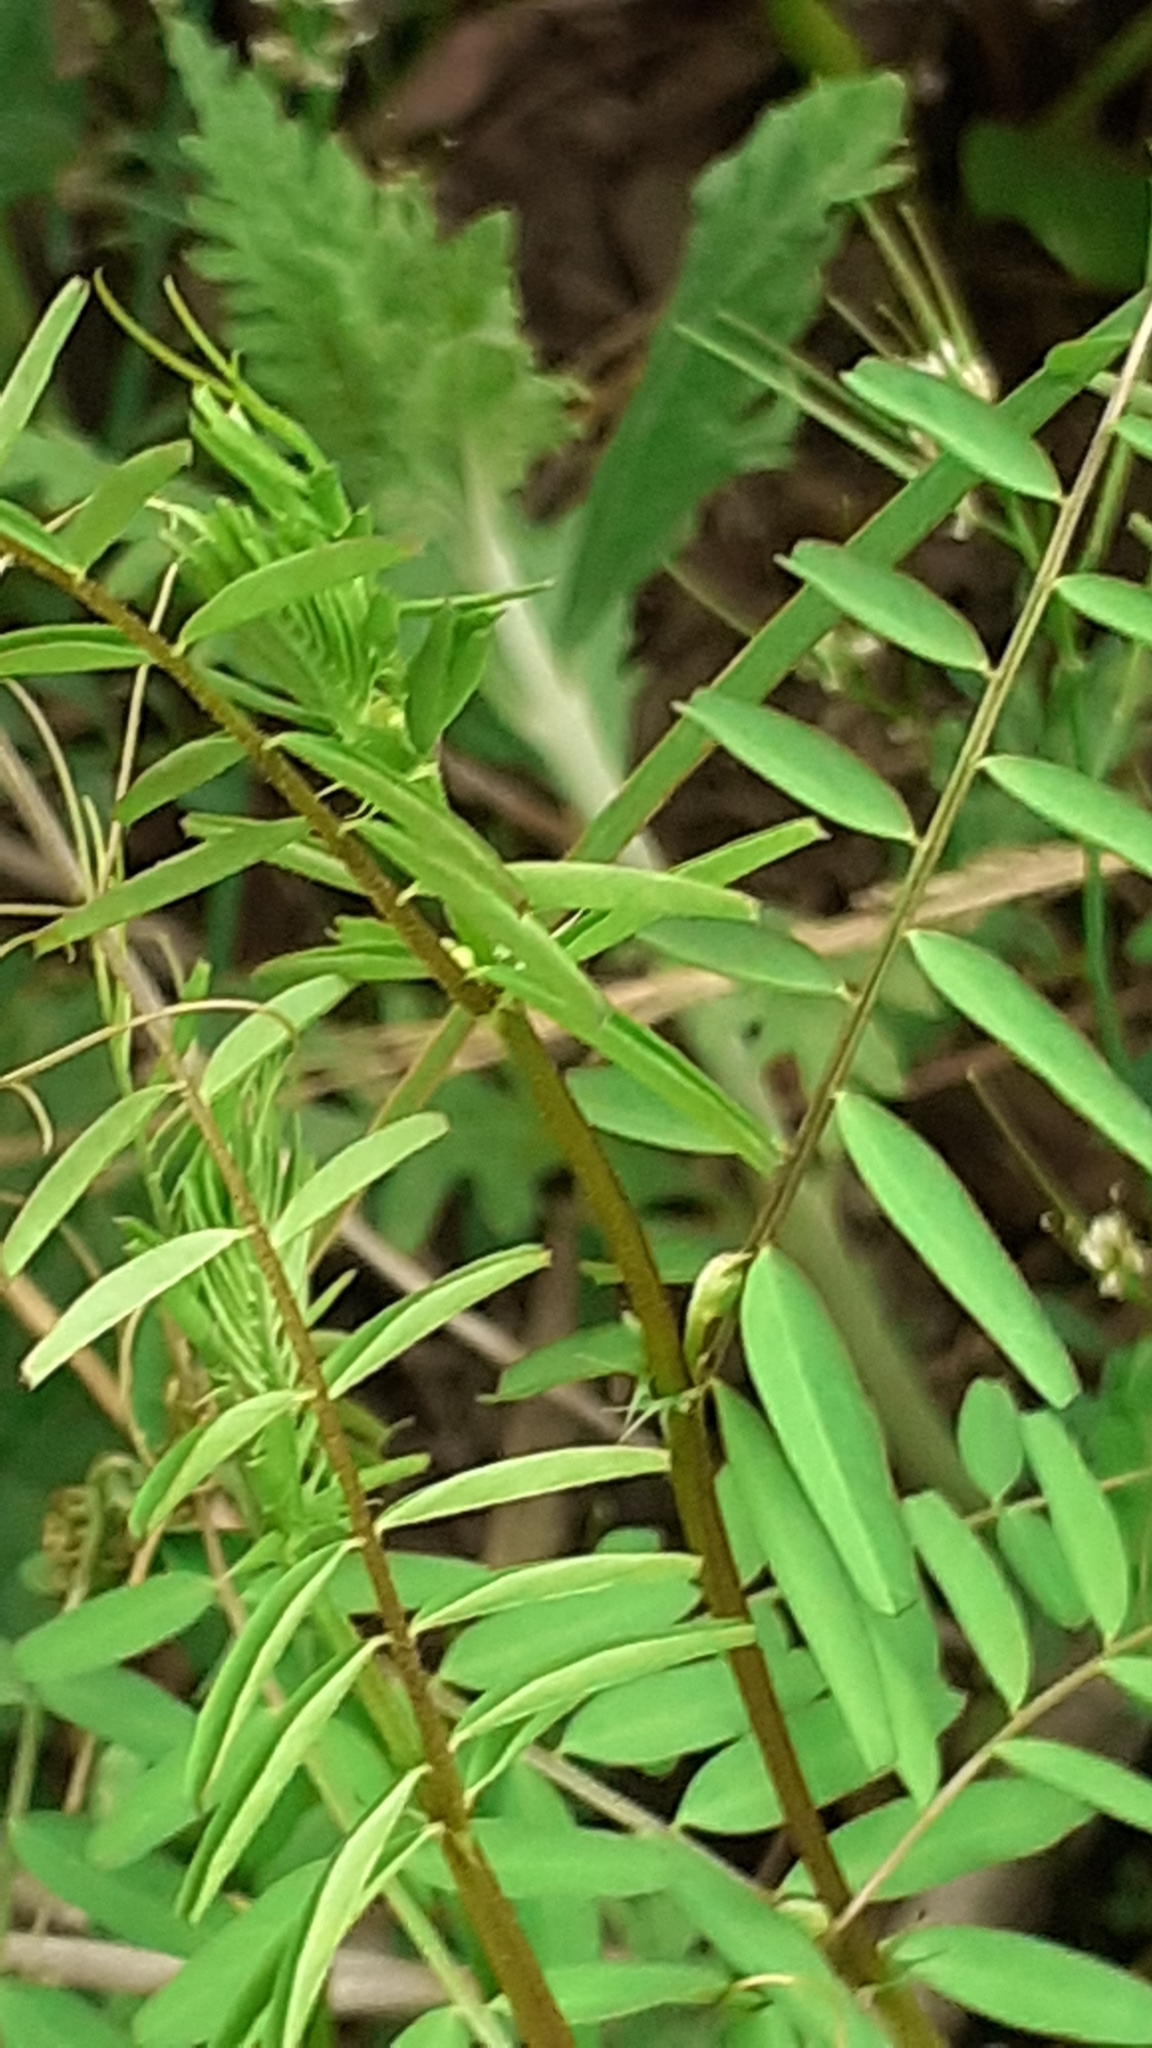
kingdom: Plantae
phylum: Tracheophyta
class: Magnoliopsida
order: Fabales
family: Fabaceae
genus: Vicia
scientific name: Vicia hirsuta
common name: Tiny vetch
